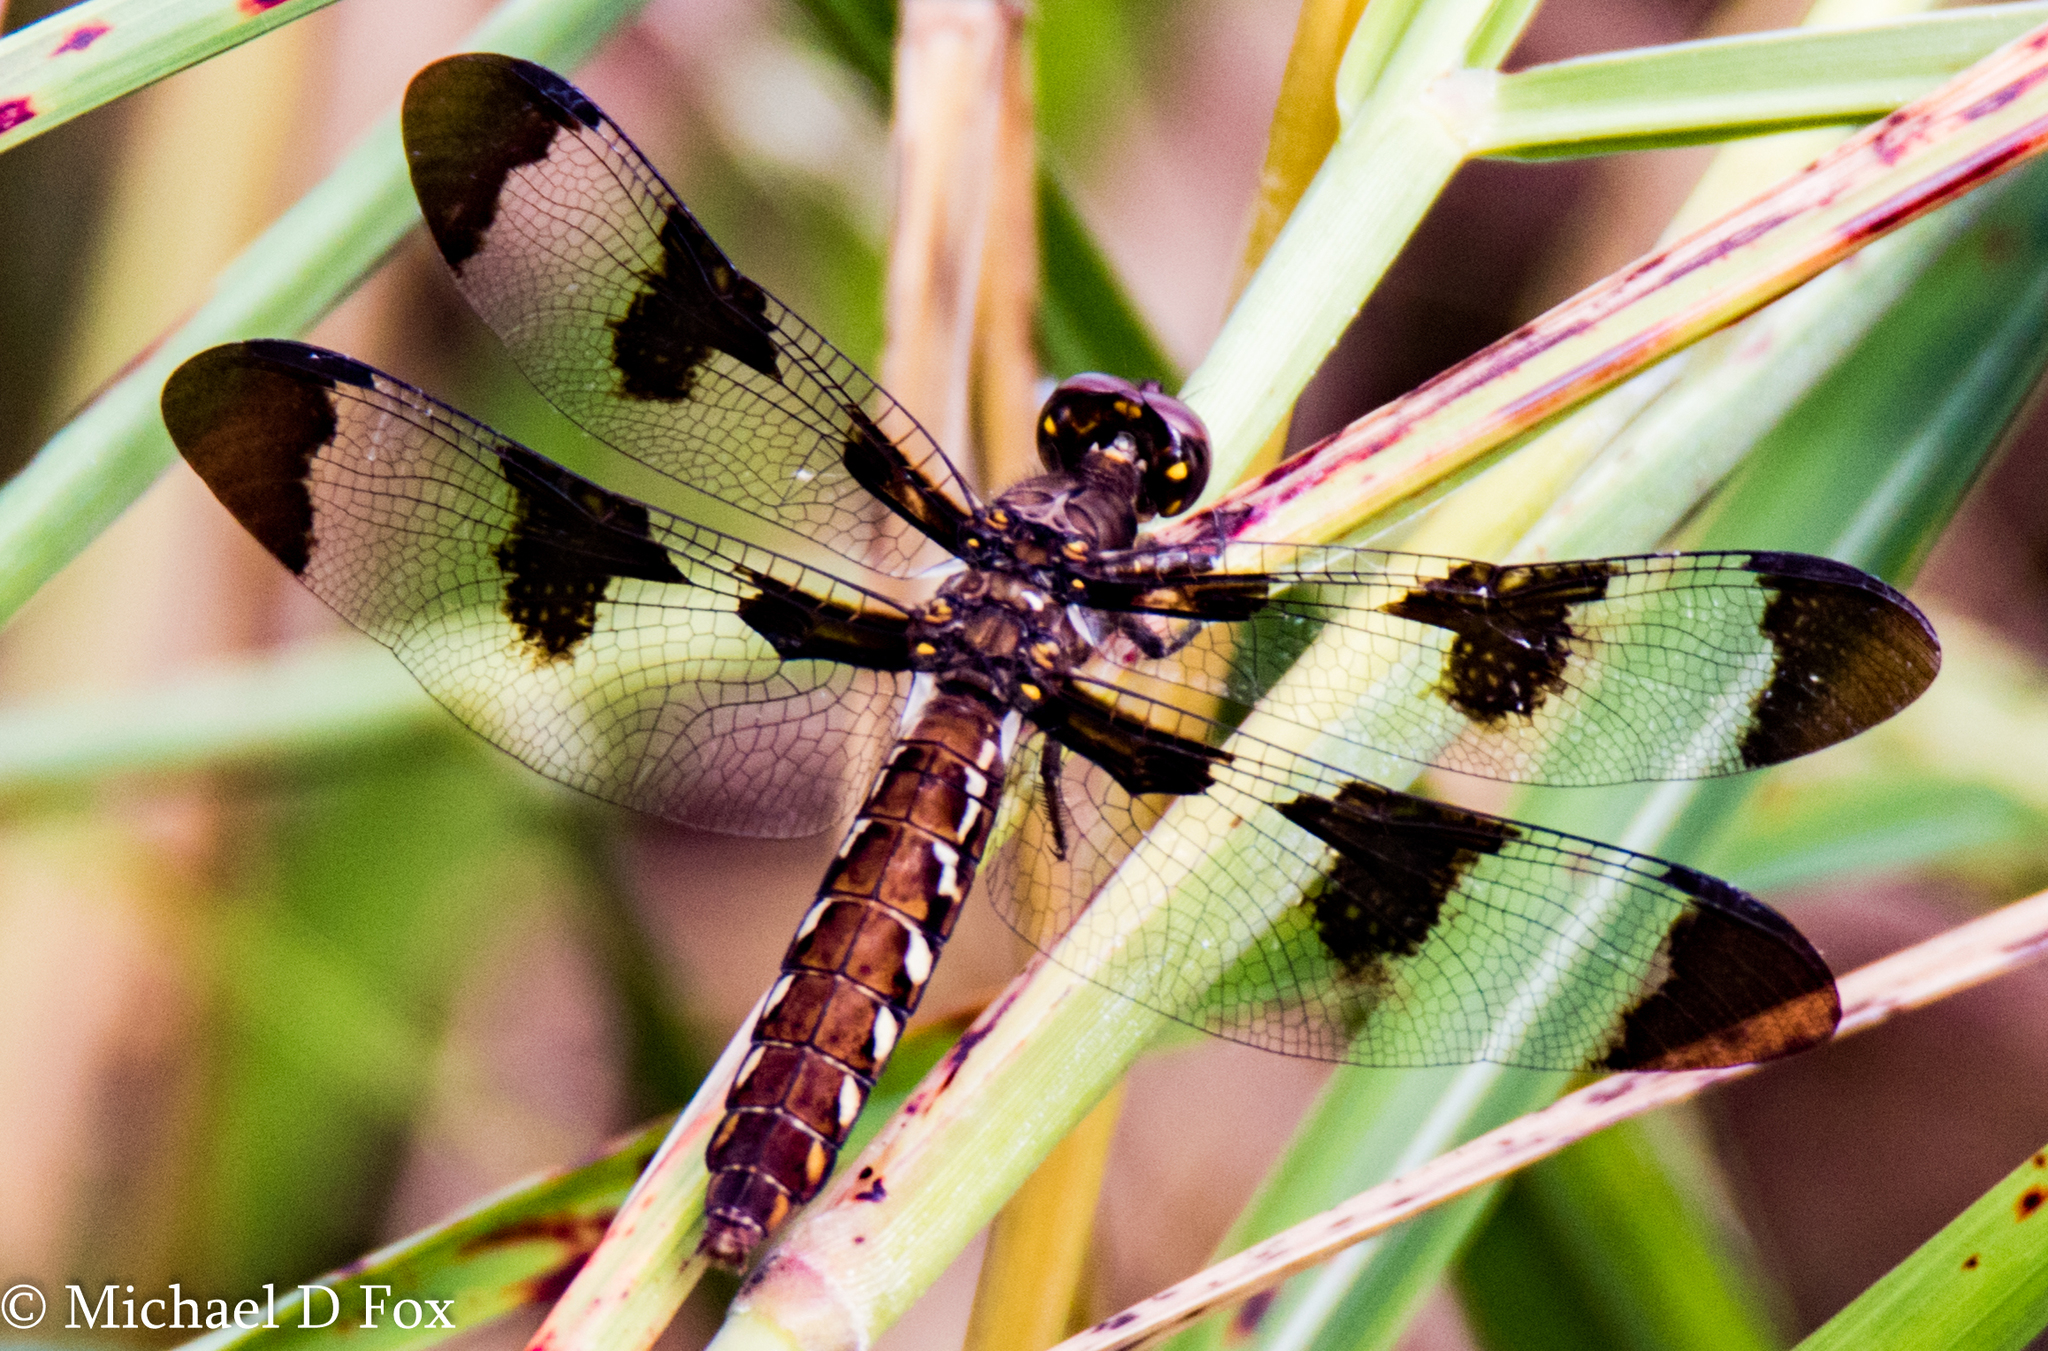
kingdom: Animalia
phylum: Arthropoda
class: Insecta
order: Odonata
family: Libellulidae
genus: Plathemis
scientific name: Plathemis lydia
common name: Common whitetail
